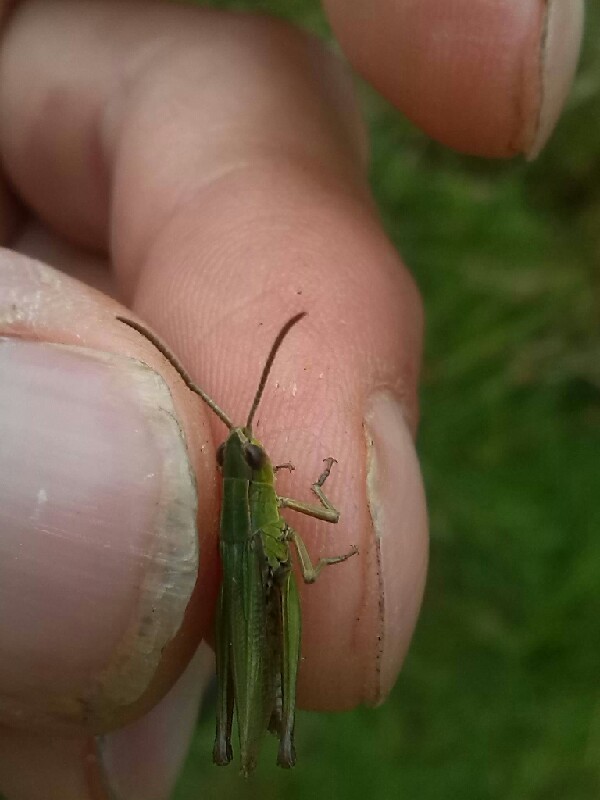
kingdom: Animalia
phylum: Arthropoda
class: Insecta
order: Orthoptera
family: Acrididae
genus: Chorthippus
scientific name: Chorthippus albomarginatus
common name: Lesser marsh grasshopper
